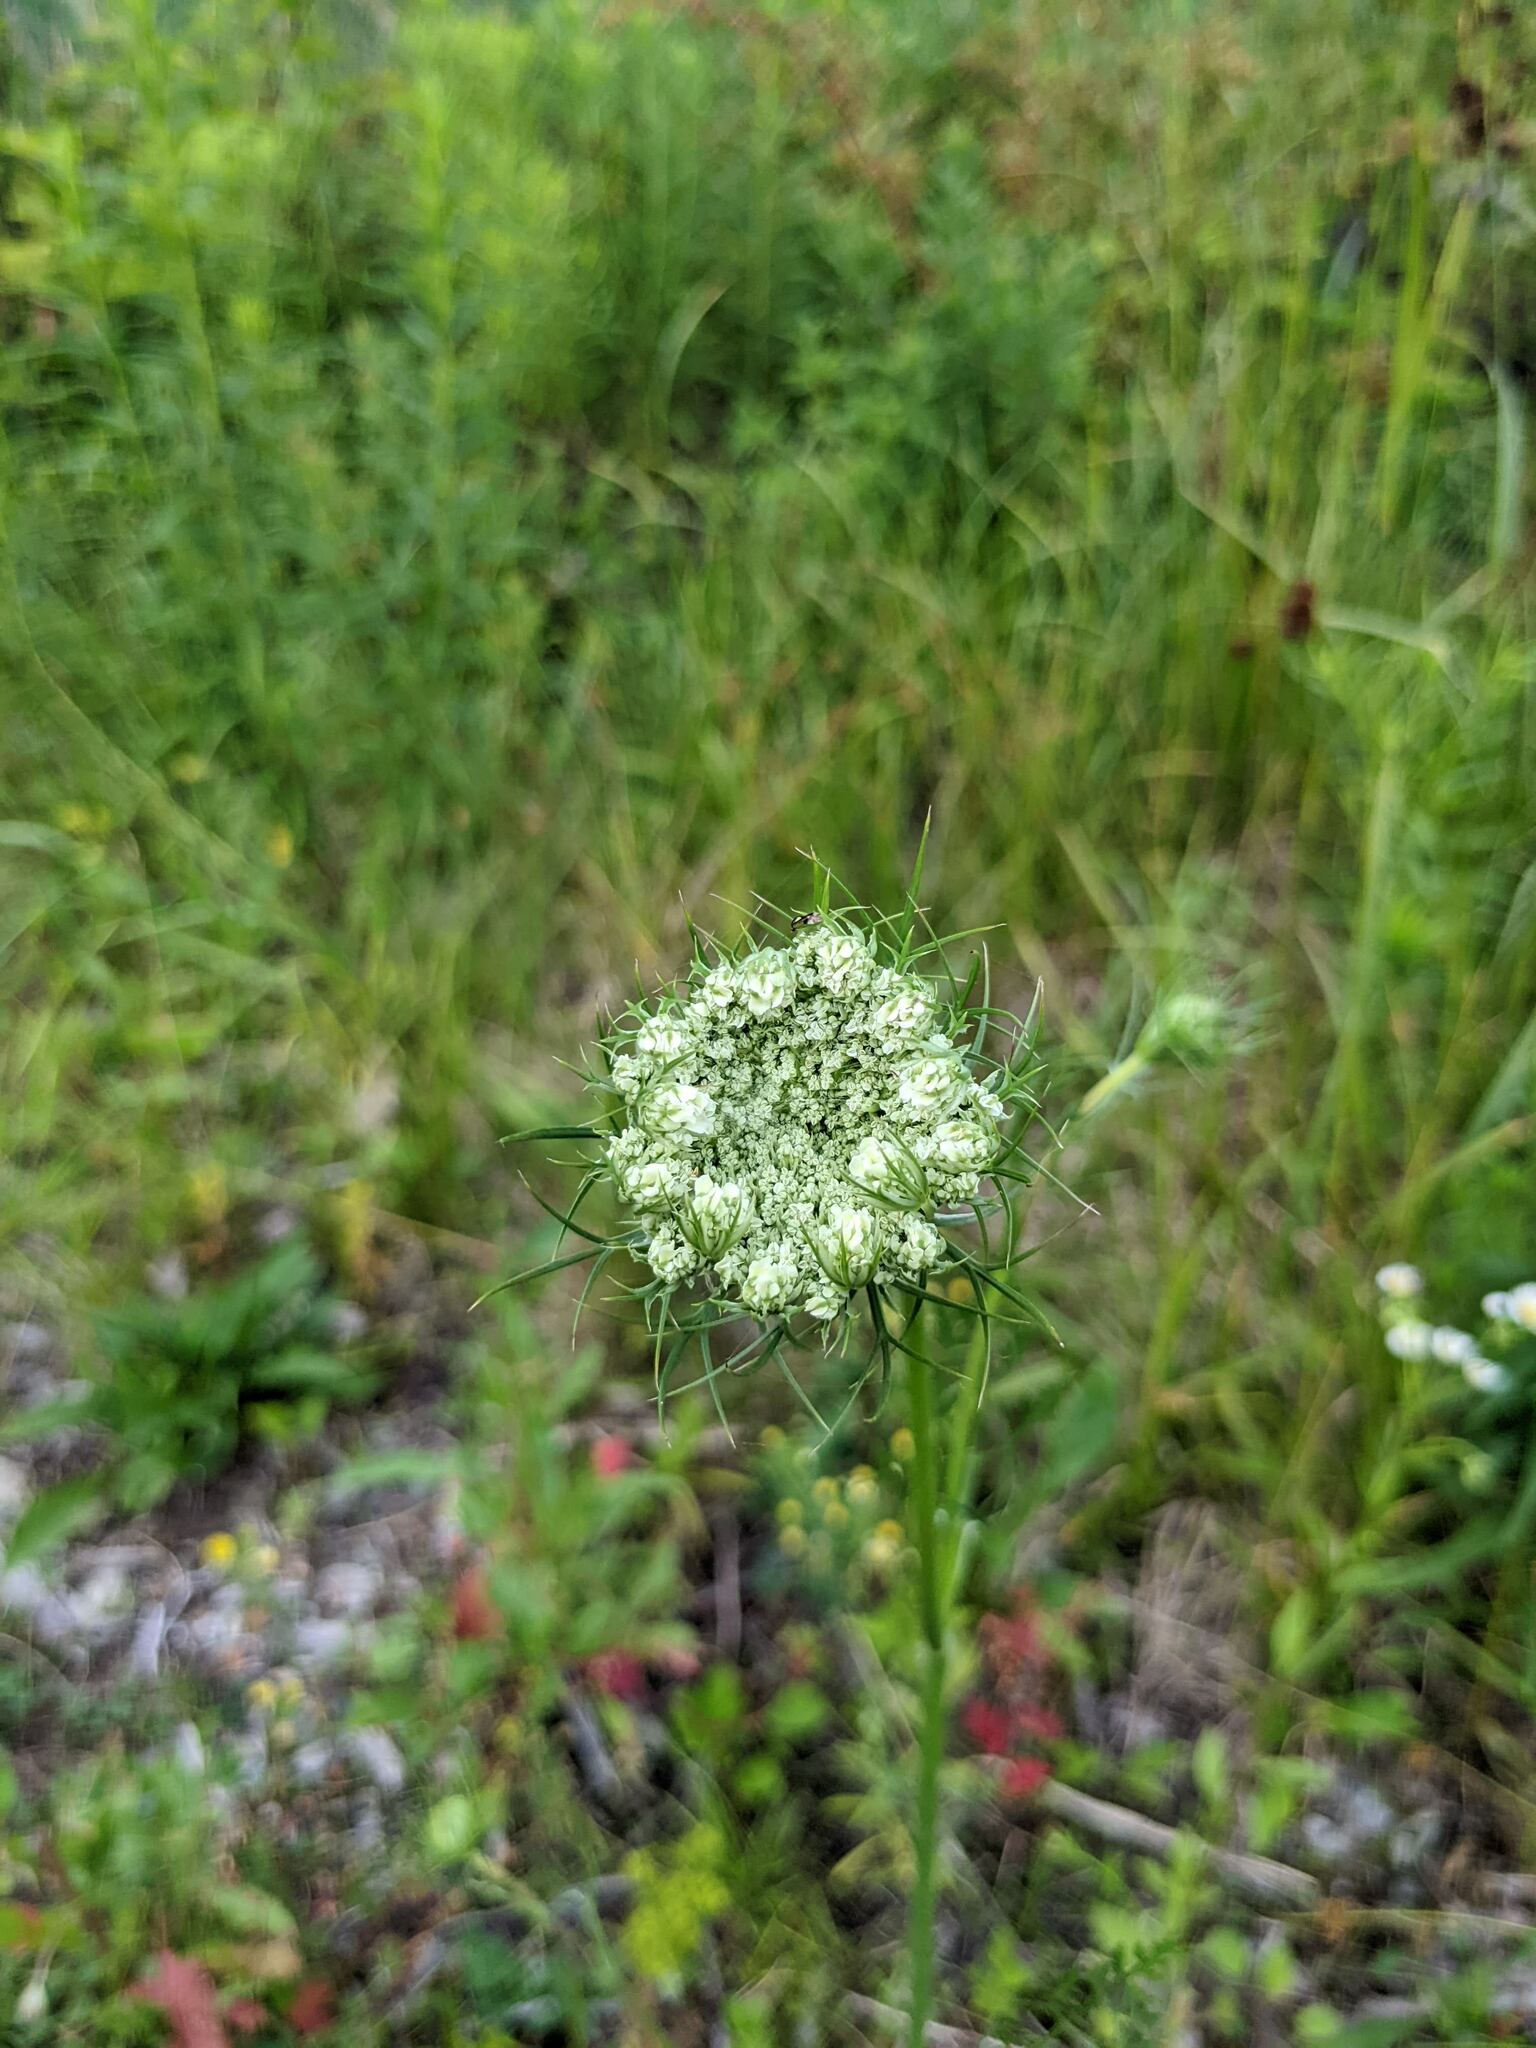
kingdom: Plantae
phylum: Tracheophyta
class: Magnoliopsida
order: Apiales
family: Apiaceae
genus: Daucus
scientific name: Daucus carota
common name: Wild carrot
